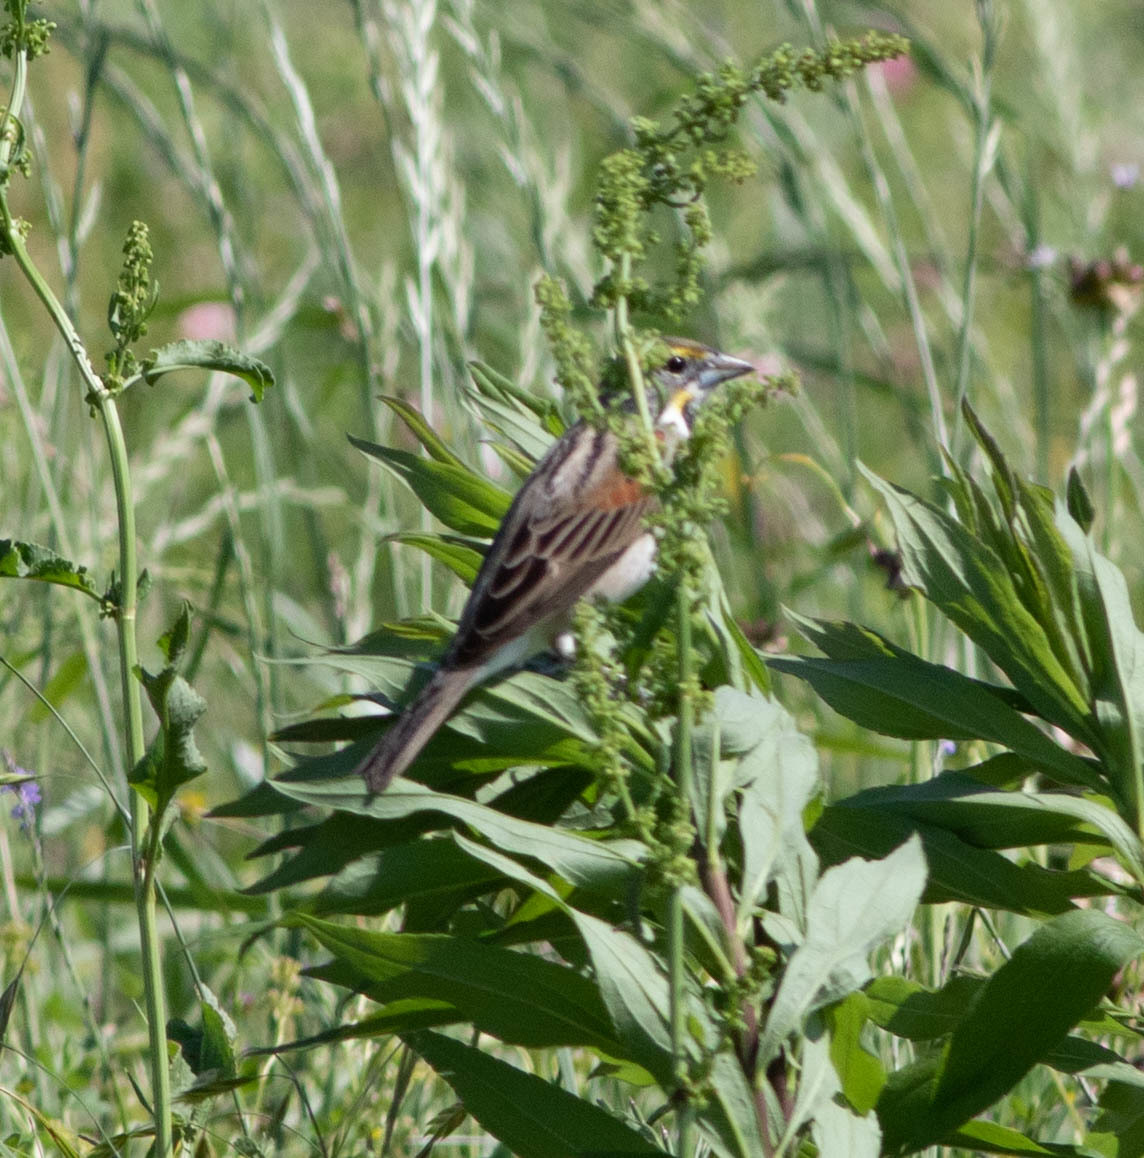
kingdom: Animalia
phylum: Chordata
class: Aves
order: Passeriformes
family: Cardinalidae
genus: Spiza
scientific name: Spiza americana
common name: Dickcissel
